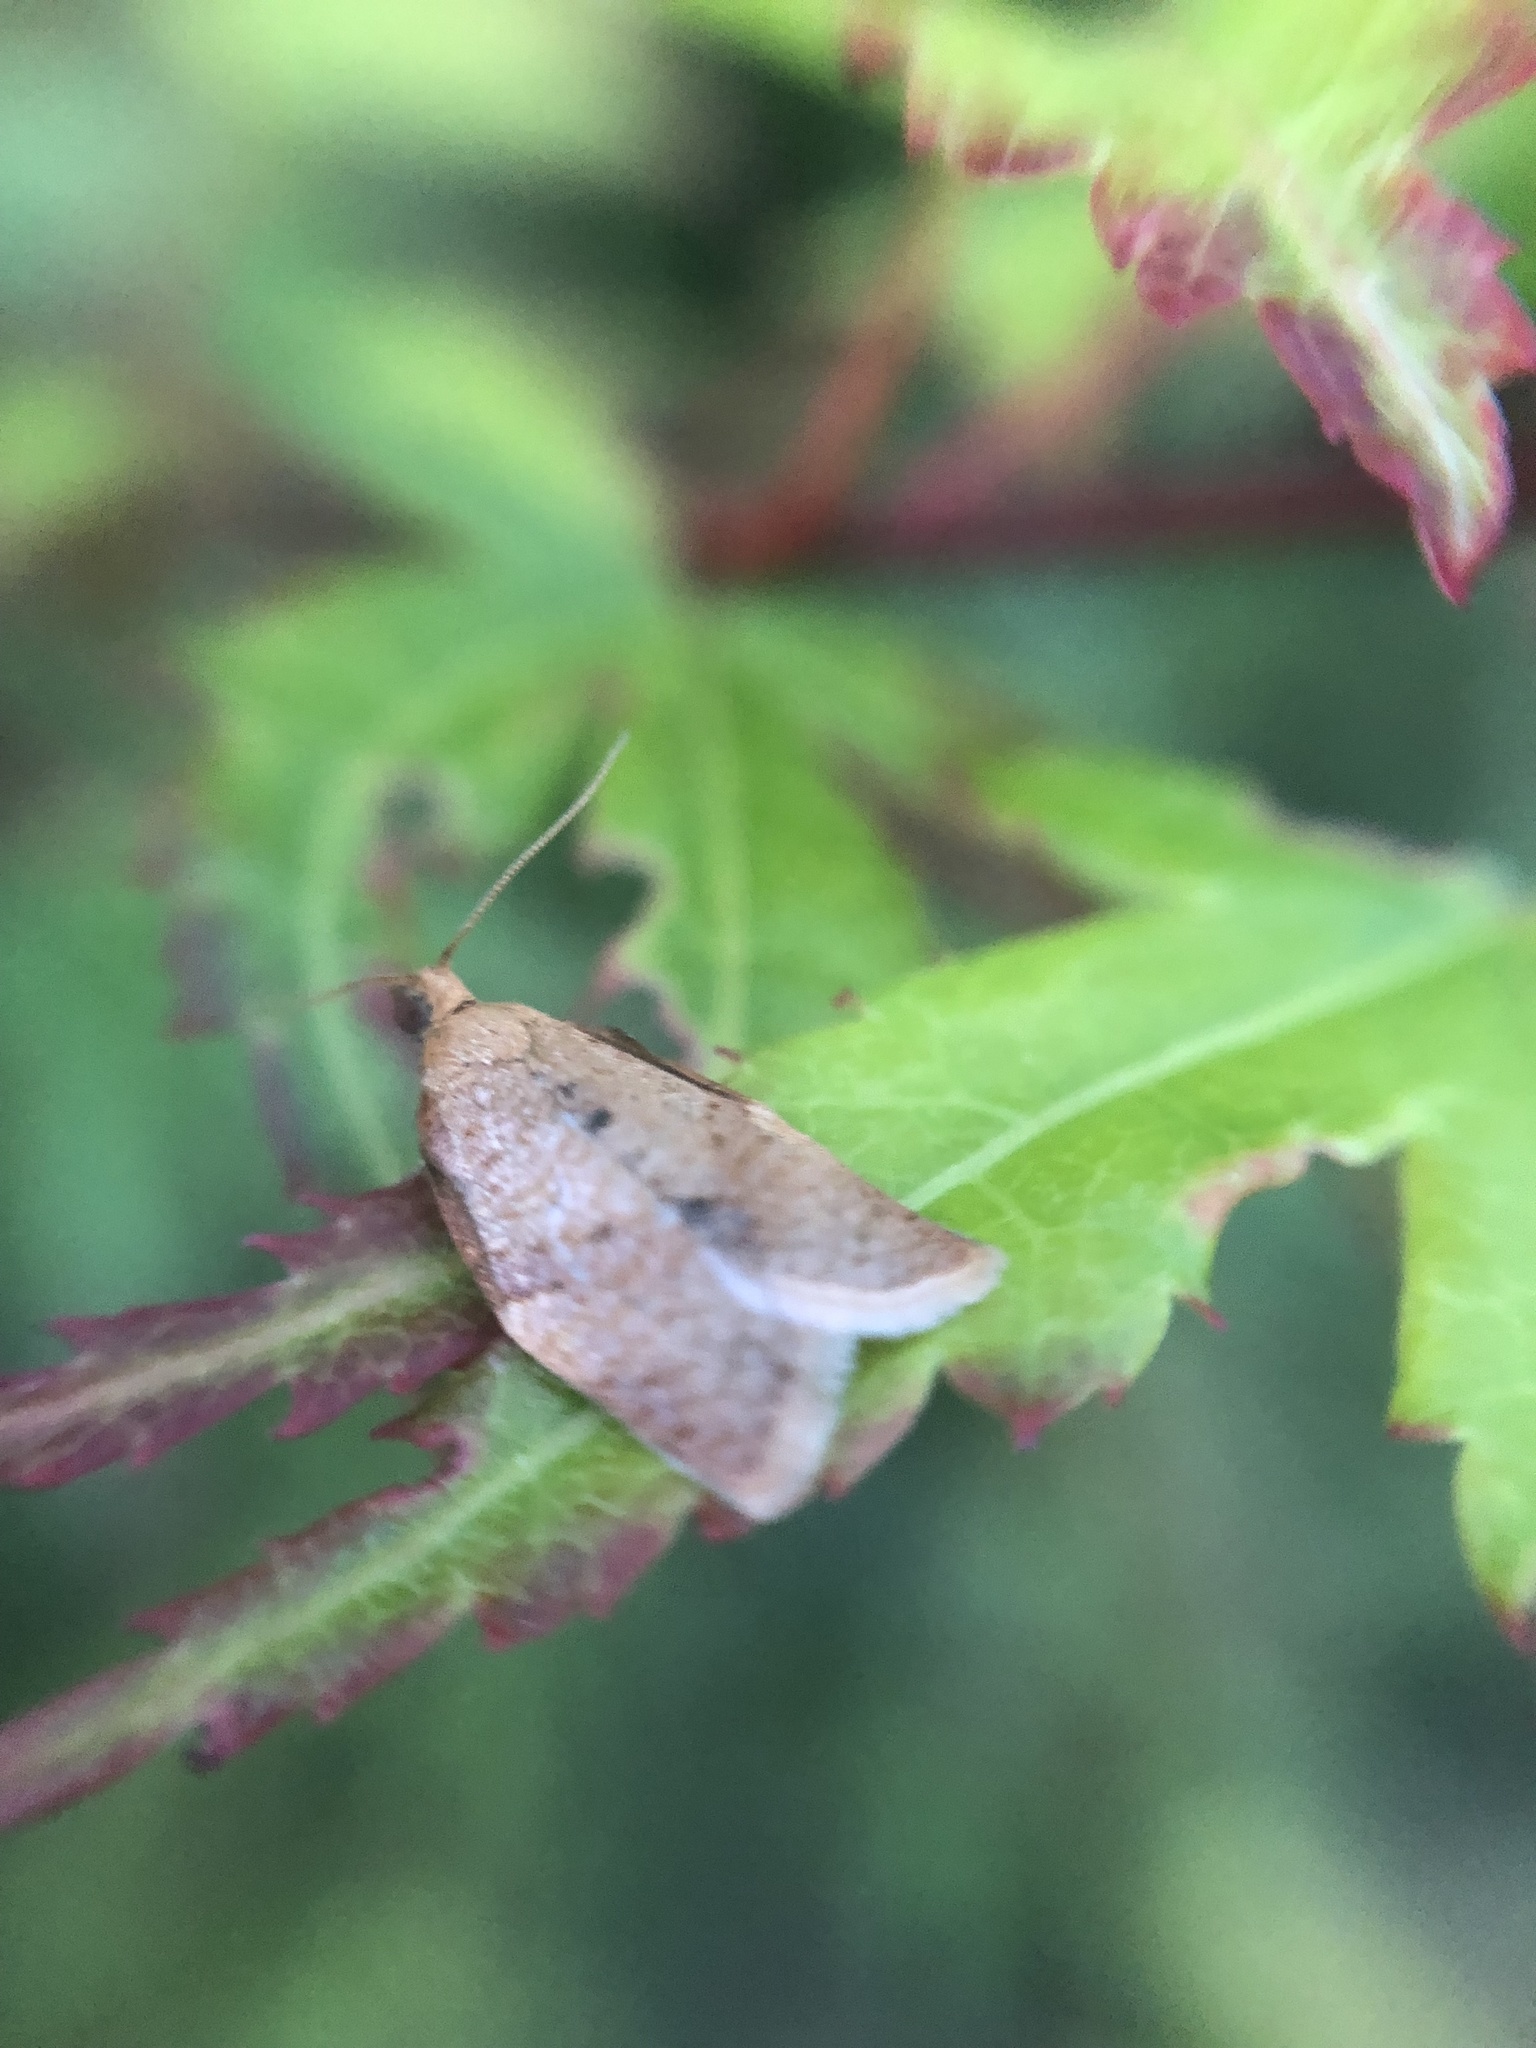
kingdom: Animalia
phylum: Arthropoda
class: Insecta
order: Lepidoptera
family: Tortricidae
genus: Clepsis
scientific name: Clepsis consimilana
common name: Privet tortrix
